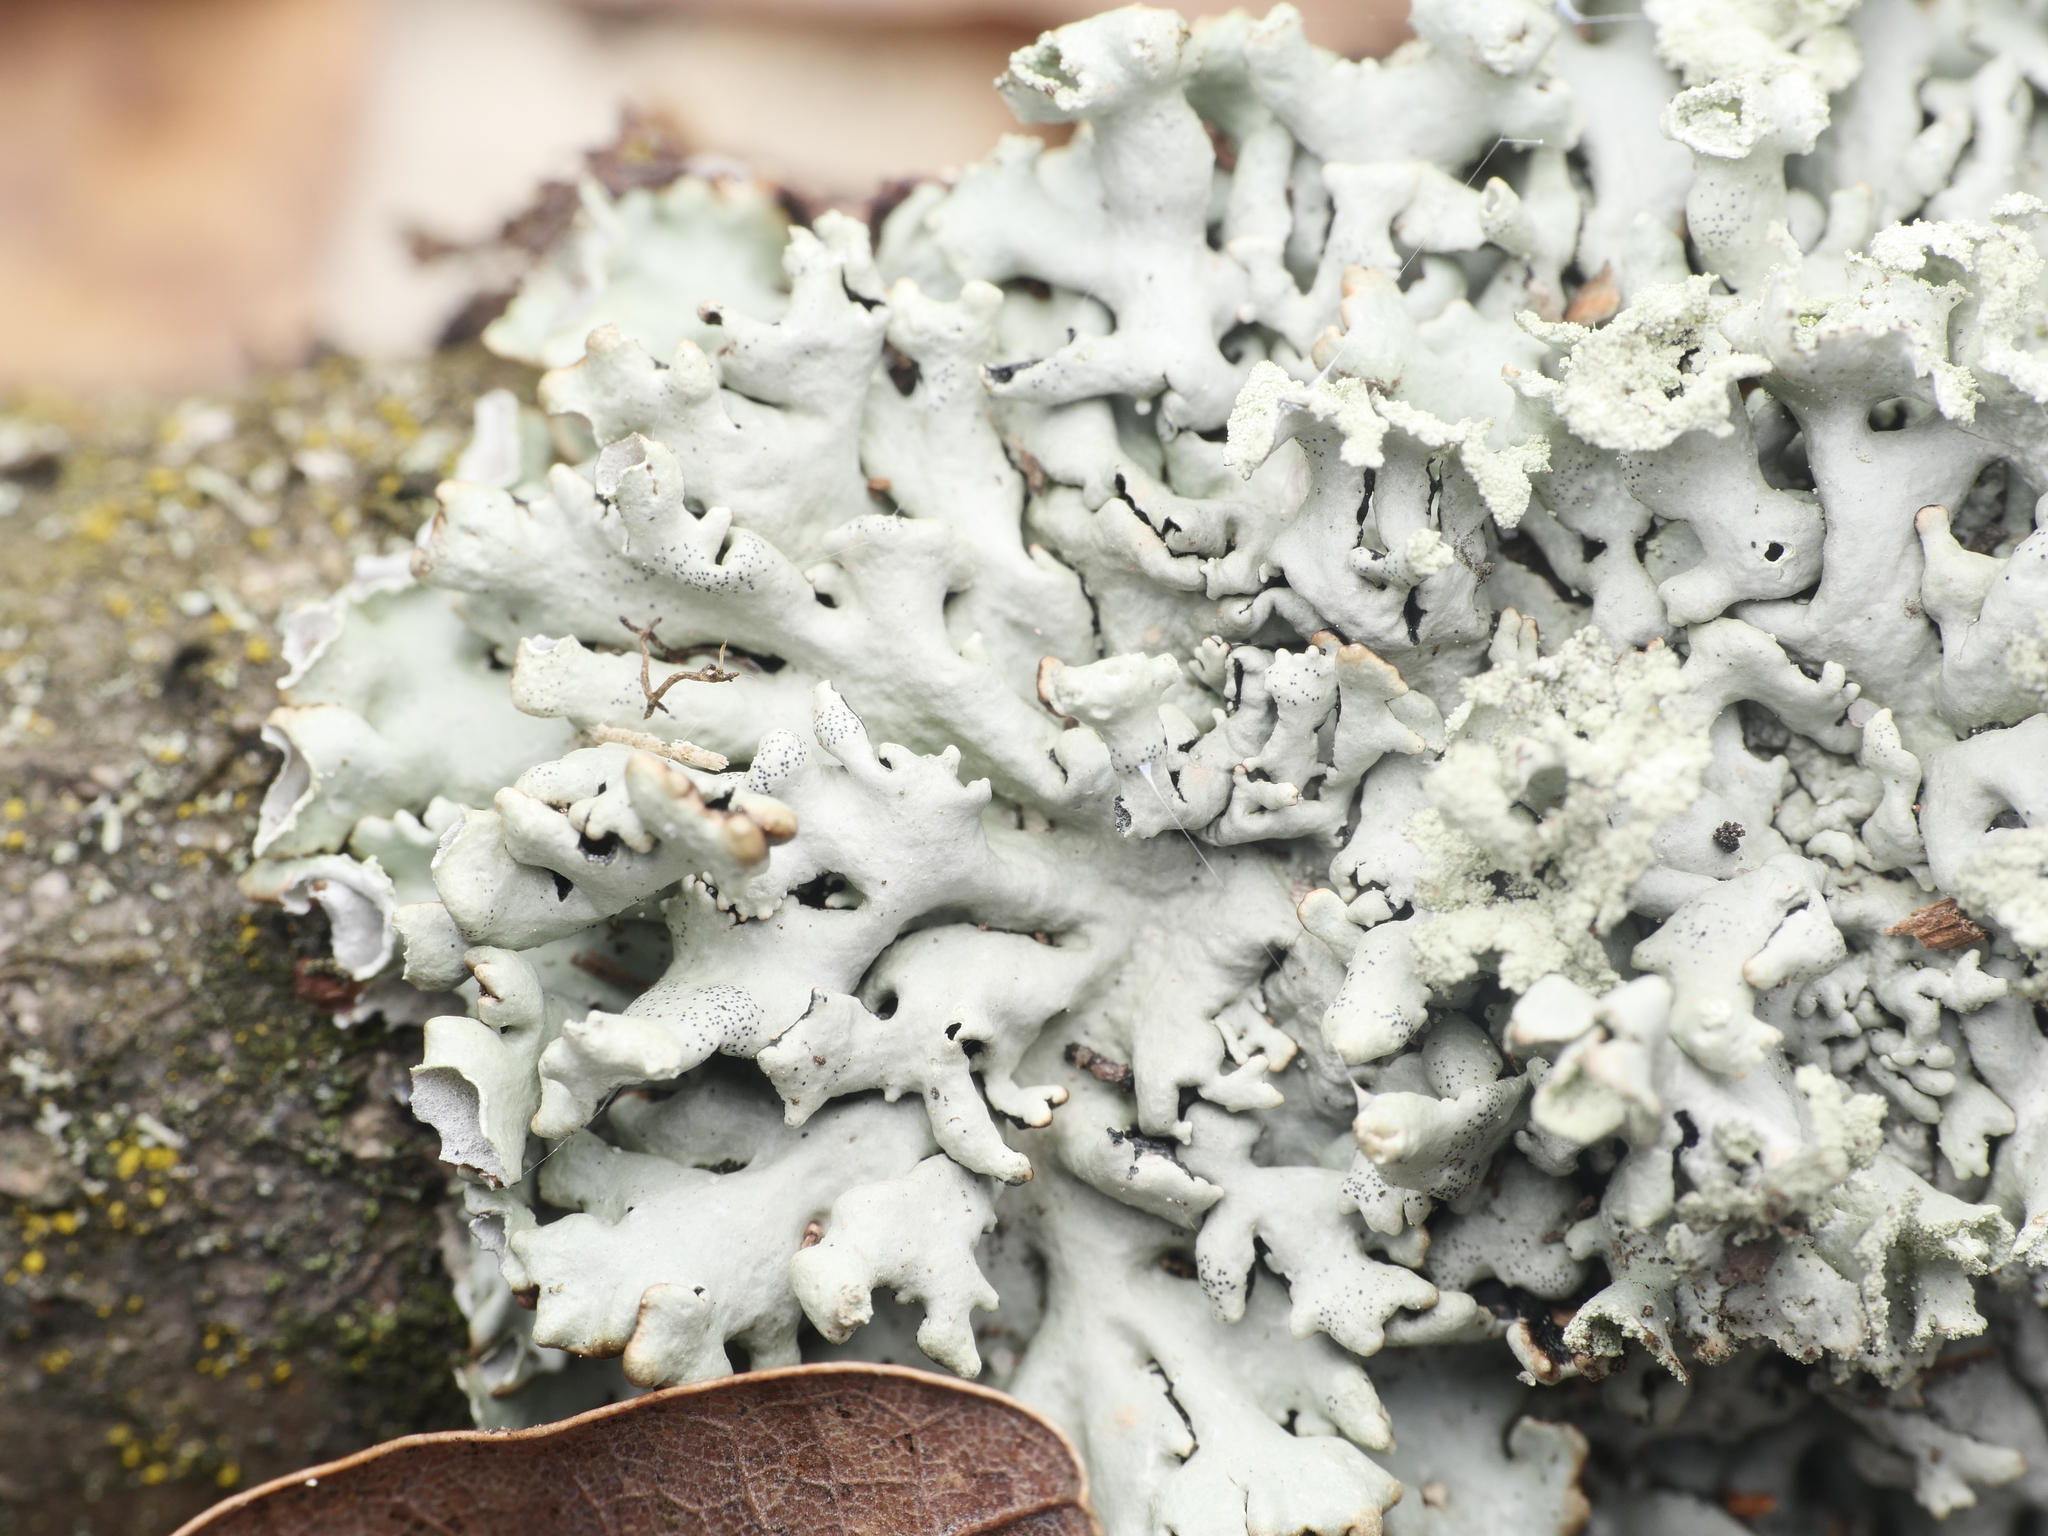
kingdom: Fungi
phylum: Ascomycota
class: Lecanoromycetes
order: Lecanorales
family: Parmeliaceae
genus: Hypogymnia
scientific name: Hypogymnia physodes
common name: Dark crottle
